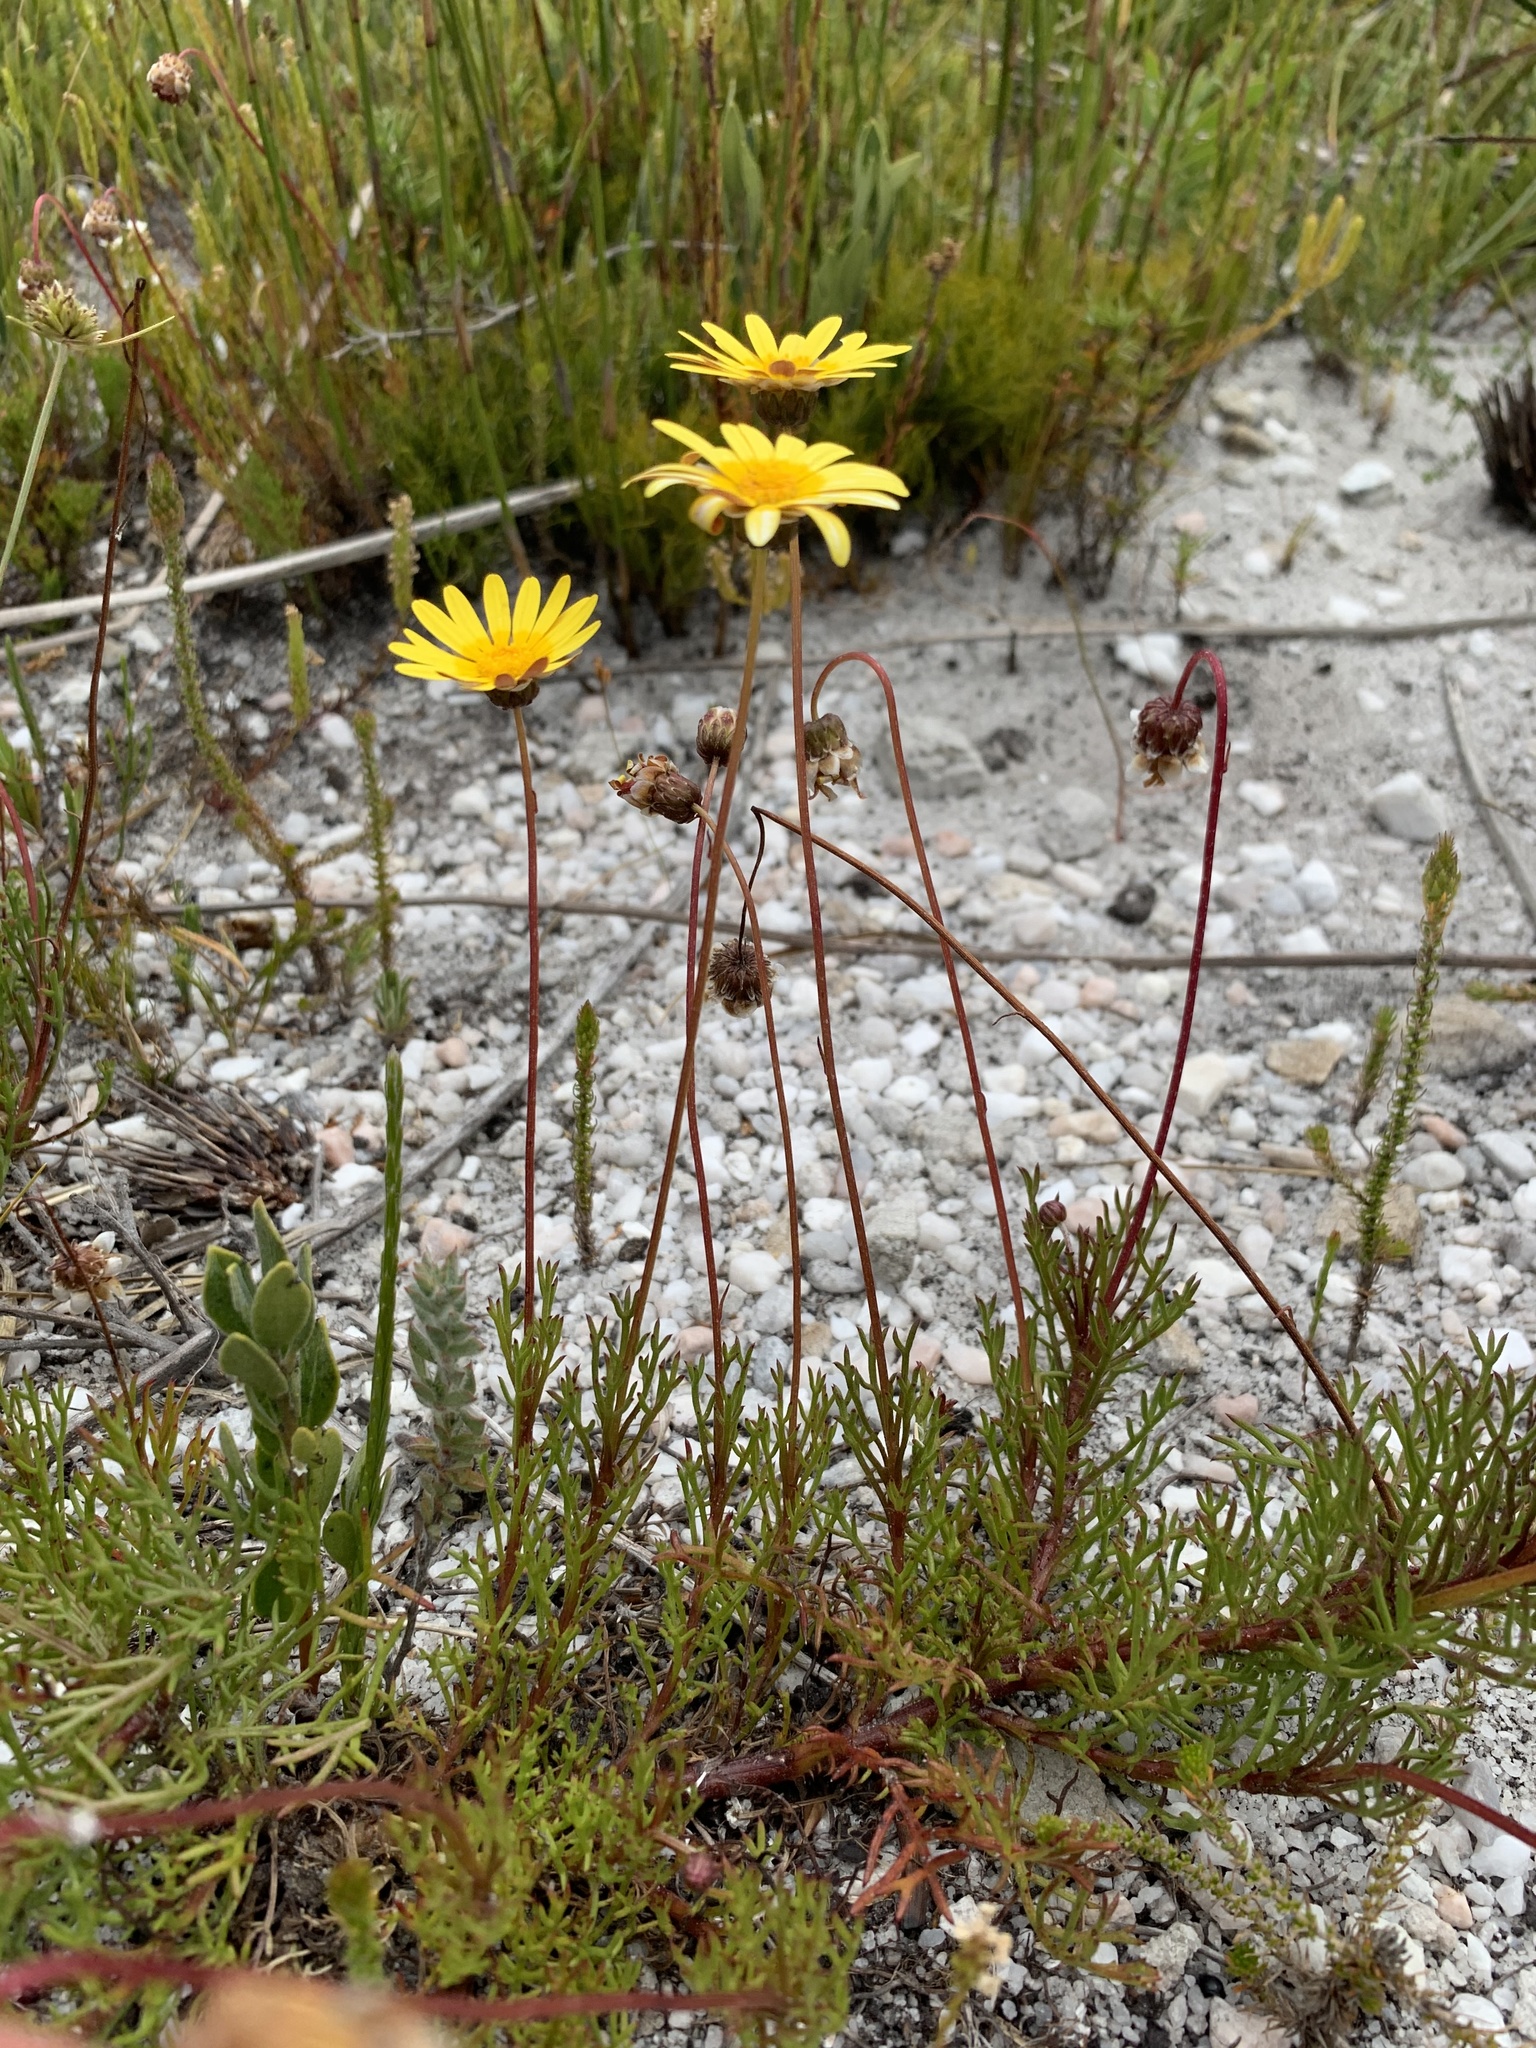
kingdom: Plantae
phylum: Tracheophyta
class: Magnoliopsida
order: Asterales
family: Asteraceae
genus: Ursinia
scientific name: Ursinia paleacea
